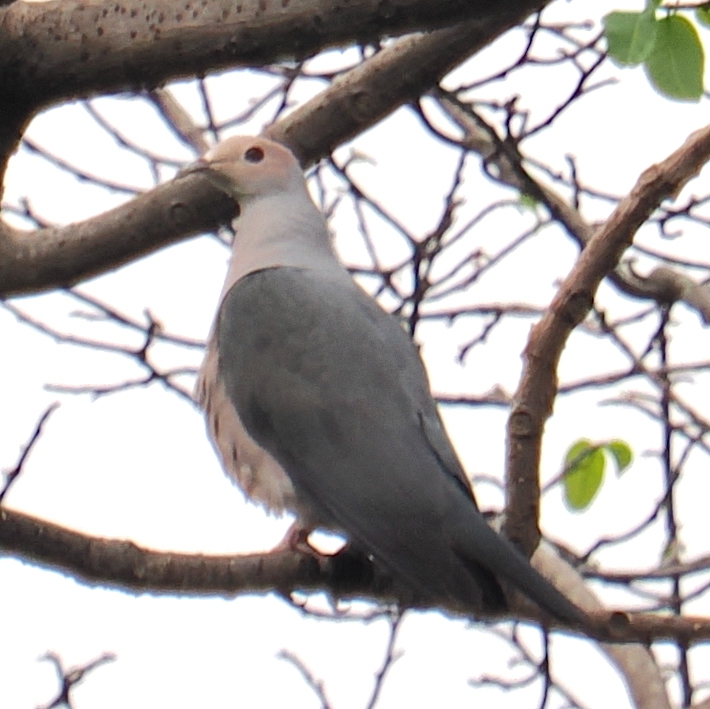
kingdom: Animalia
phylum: Chordata
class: Aves
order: Columbiformes
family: Columbidae
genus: Ducula
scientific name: Ducula rosacea
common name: Pink-headed imperial pigeon
